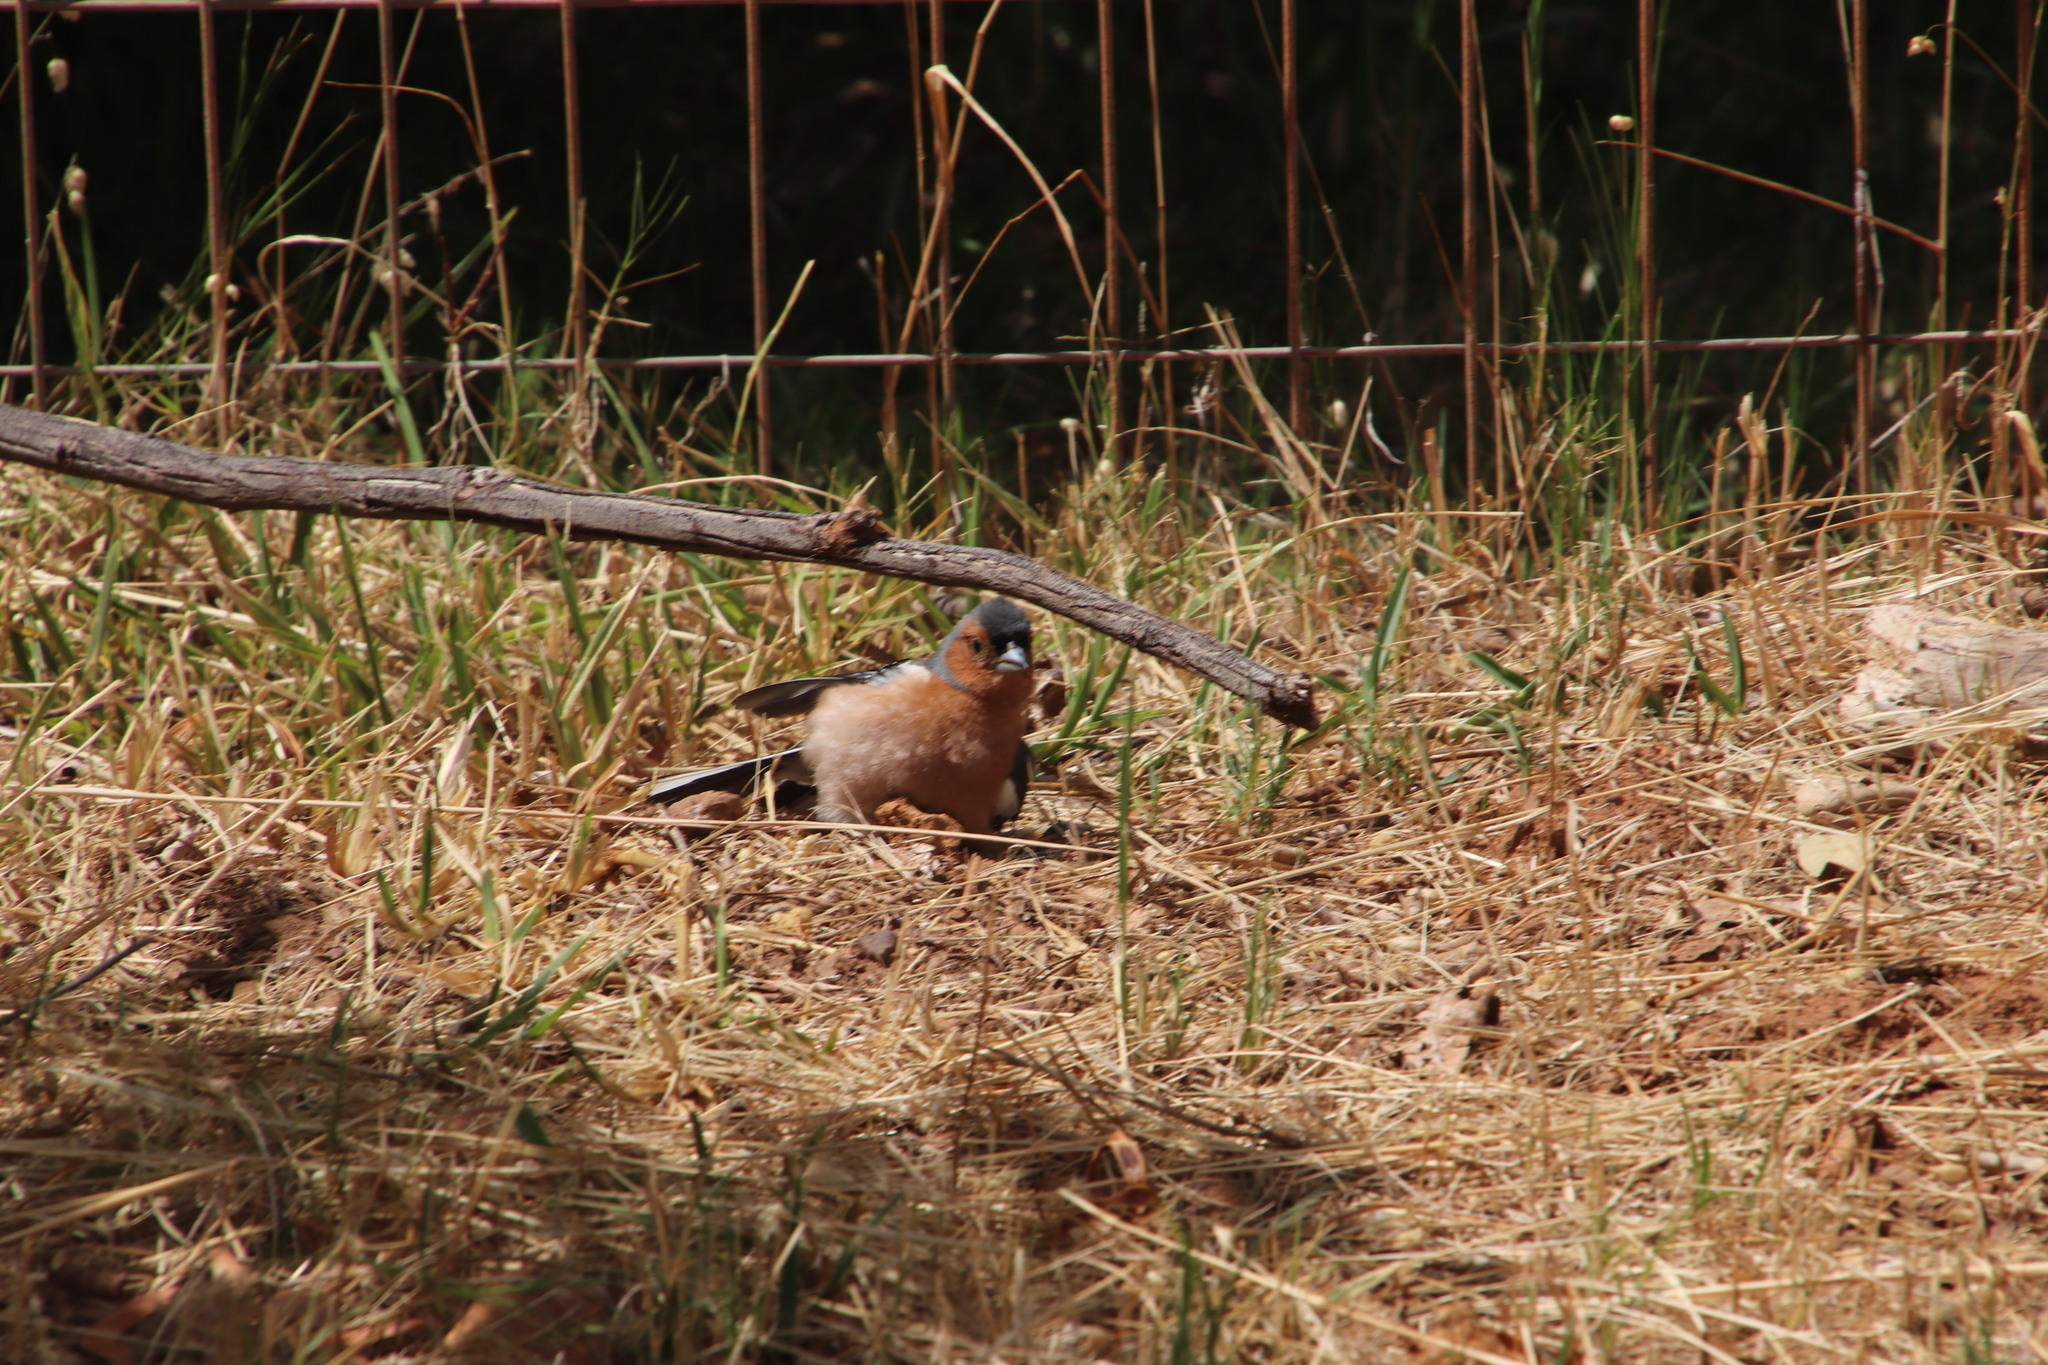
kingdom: Animalia
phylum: Chordata
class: Aves
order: Passeriformes
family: Fringillidae
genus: Fringilla
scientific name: Fringilla coelebs
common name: Common chaffinch
